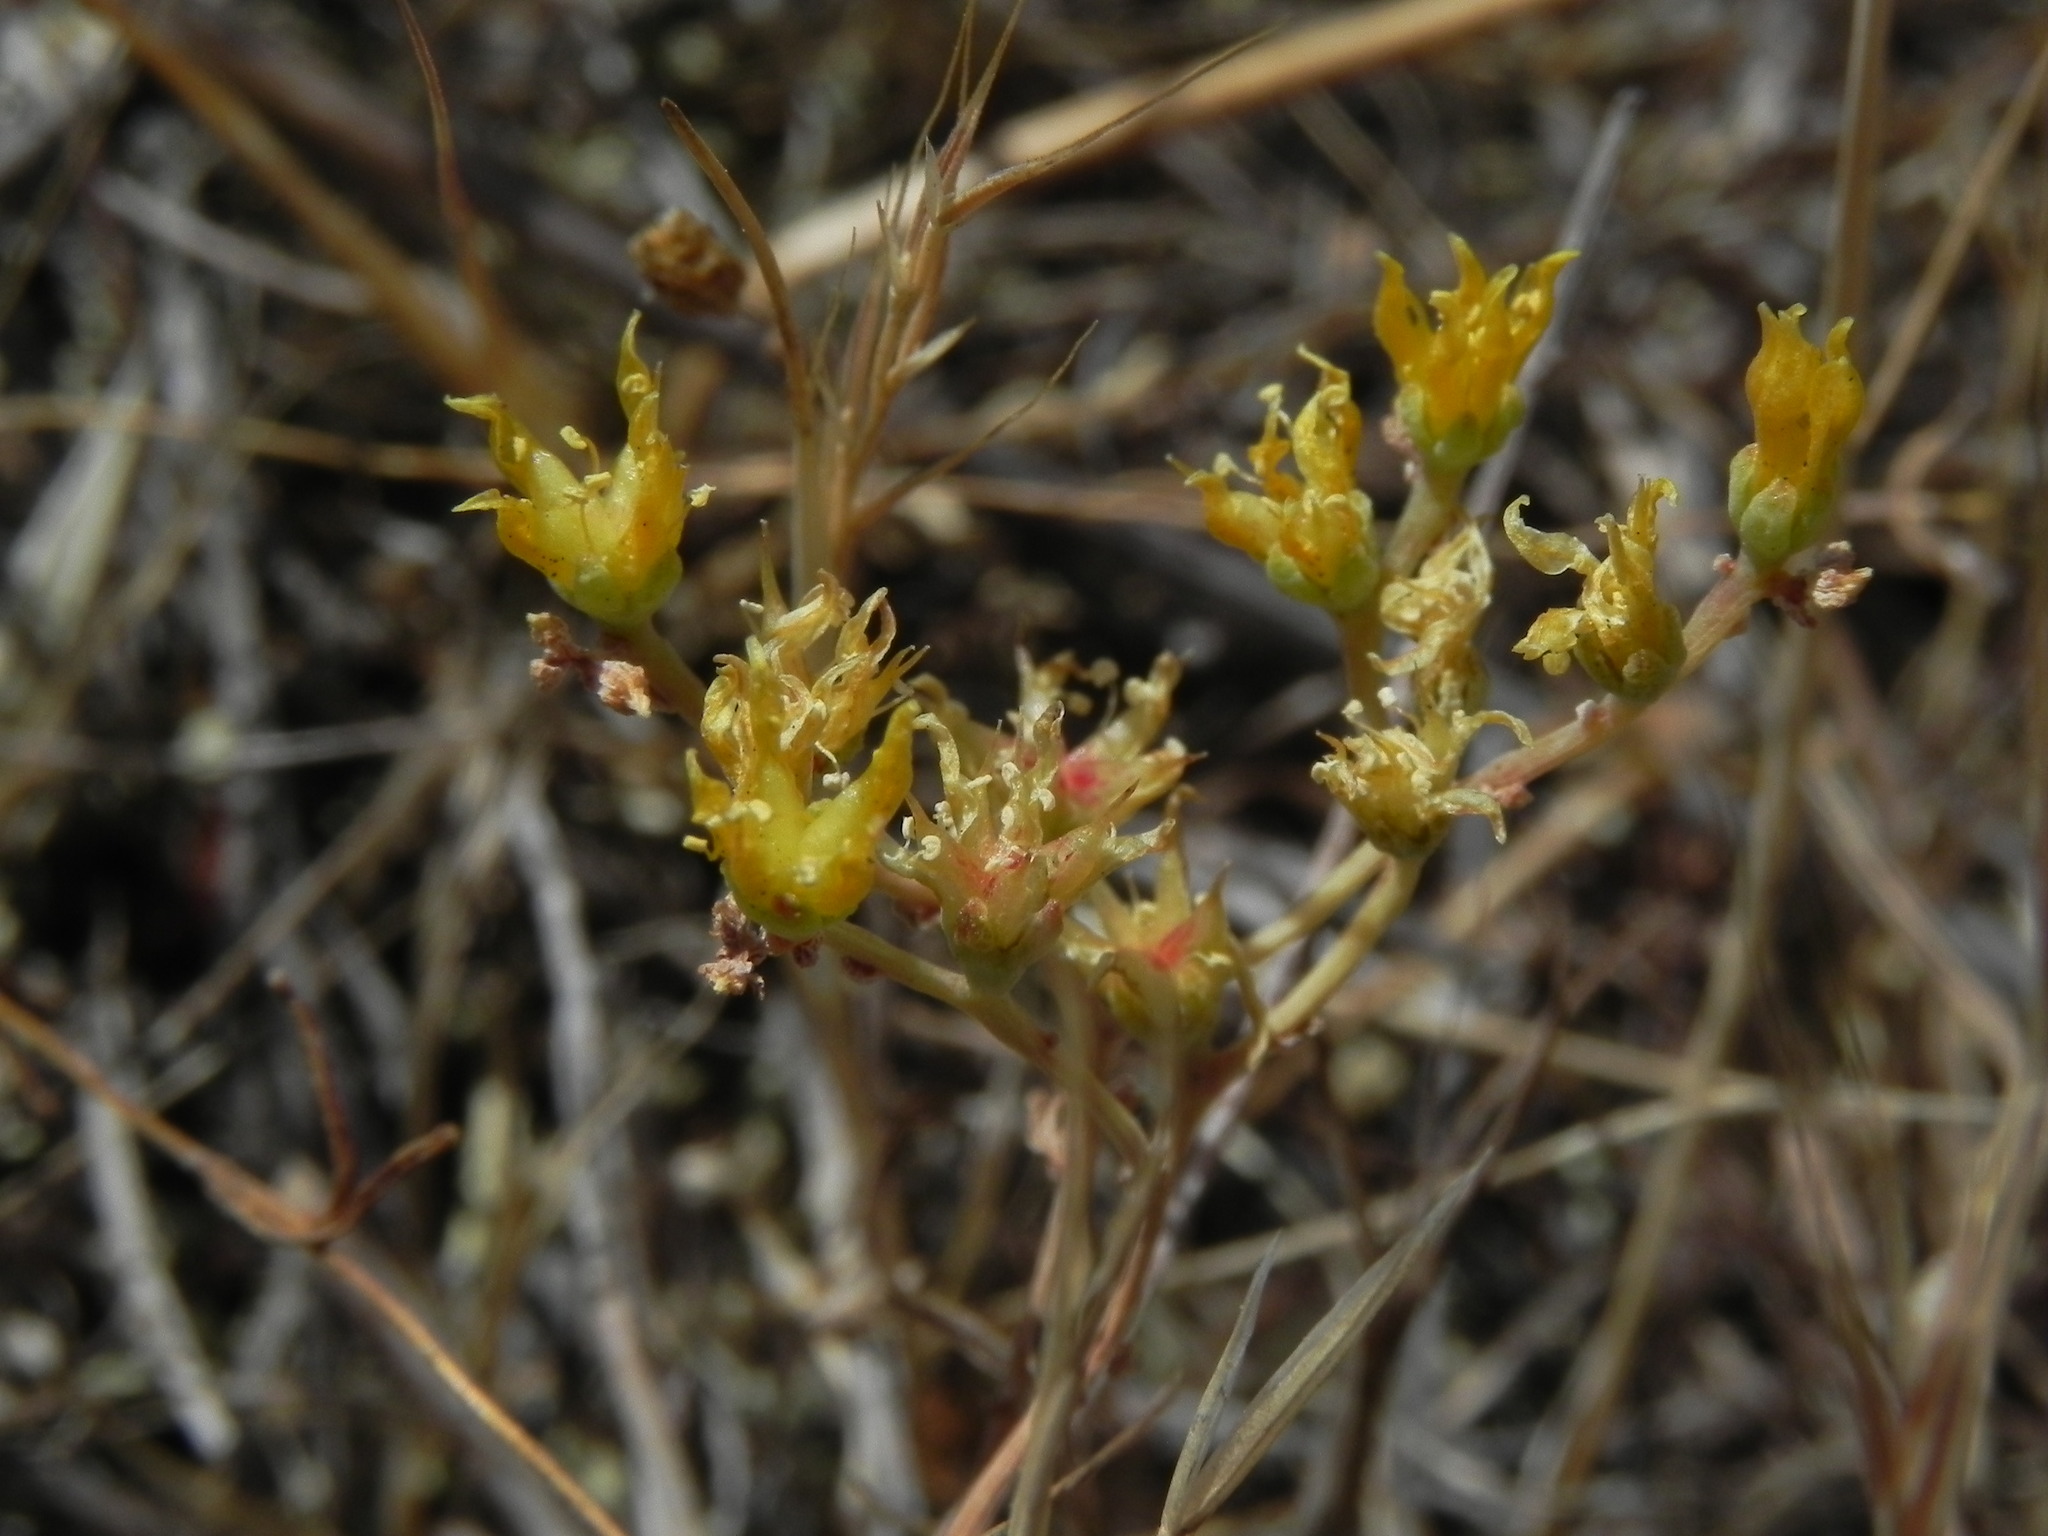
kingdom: Plantae
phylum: Tracheophyta
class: Magnoliopsida
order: Saxifragales
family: Crassulaceae
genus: Dudleya
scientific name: Dudleya variegata
